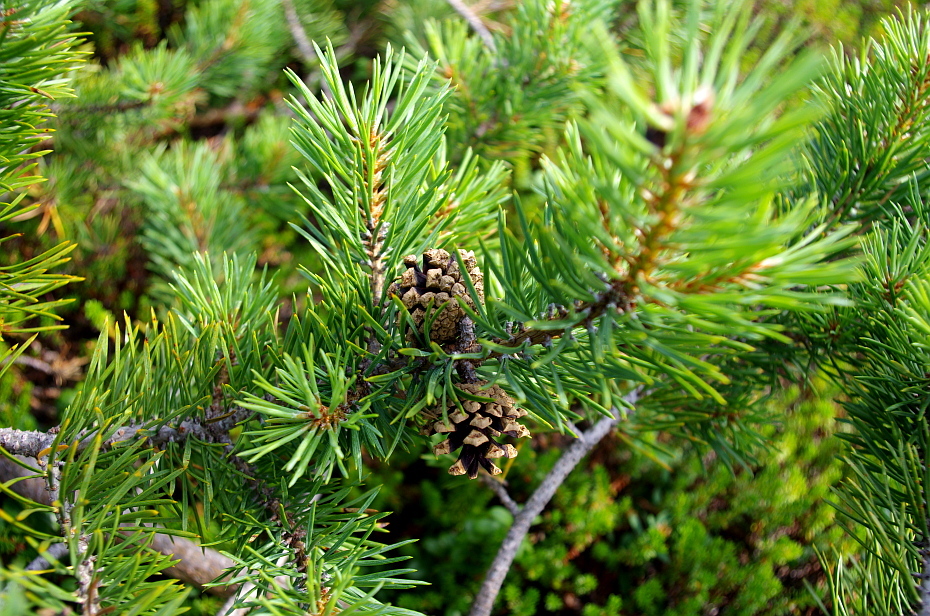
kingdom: Plantae
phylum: Tracheophyta
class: Pinopsida
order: Pinales
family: Pinaceae
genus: Pinus
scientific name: Pinus sylvestris
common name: Scots pine
